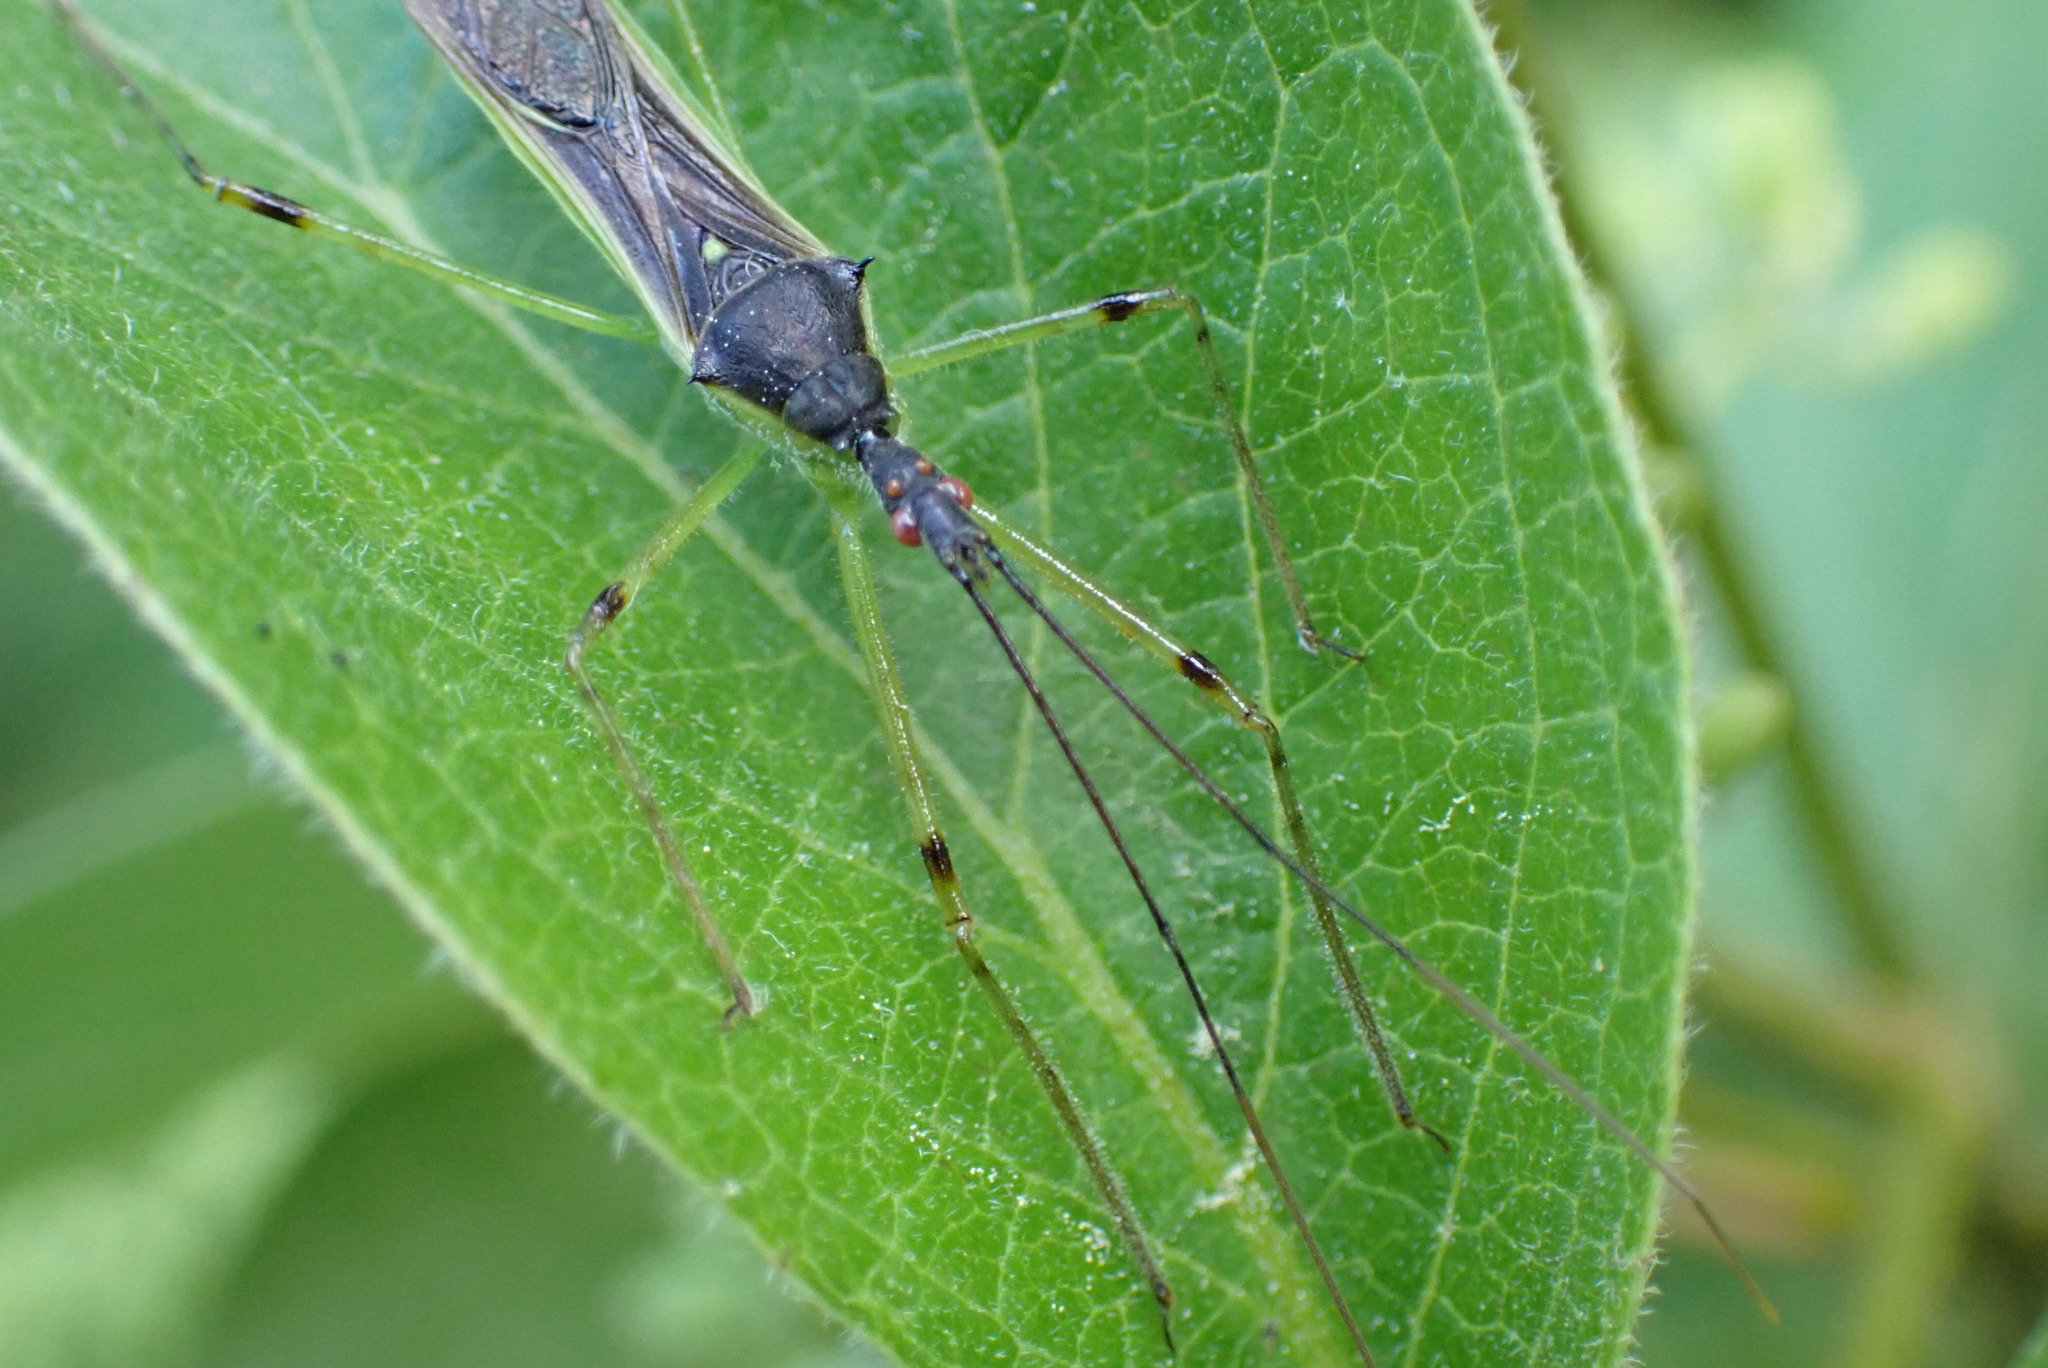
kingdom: Animalia
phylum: Arthropoda
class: Insecta
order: Hemiptera
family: Reduviidae
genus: Zelus
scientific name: Zelus luridus
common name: Pale green assassin bug
